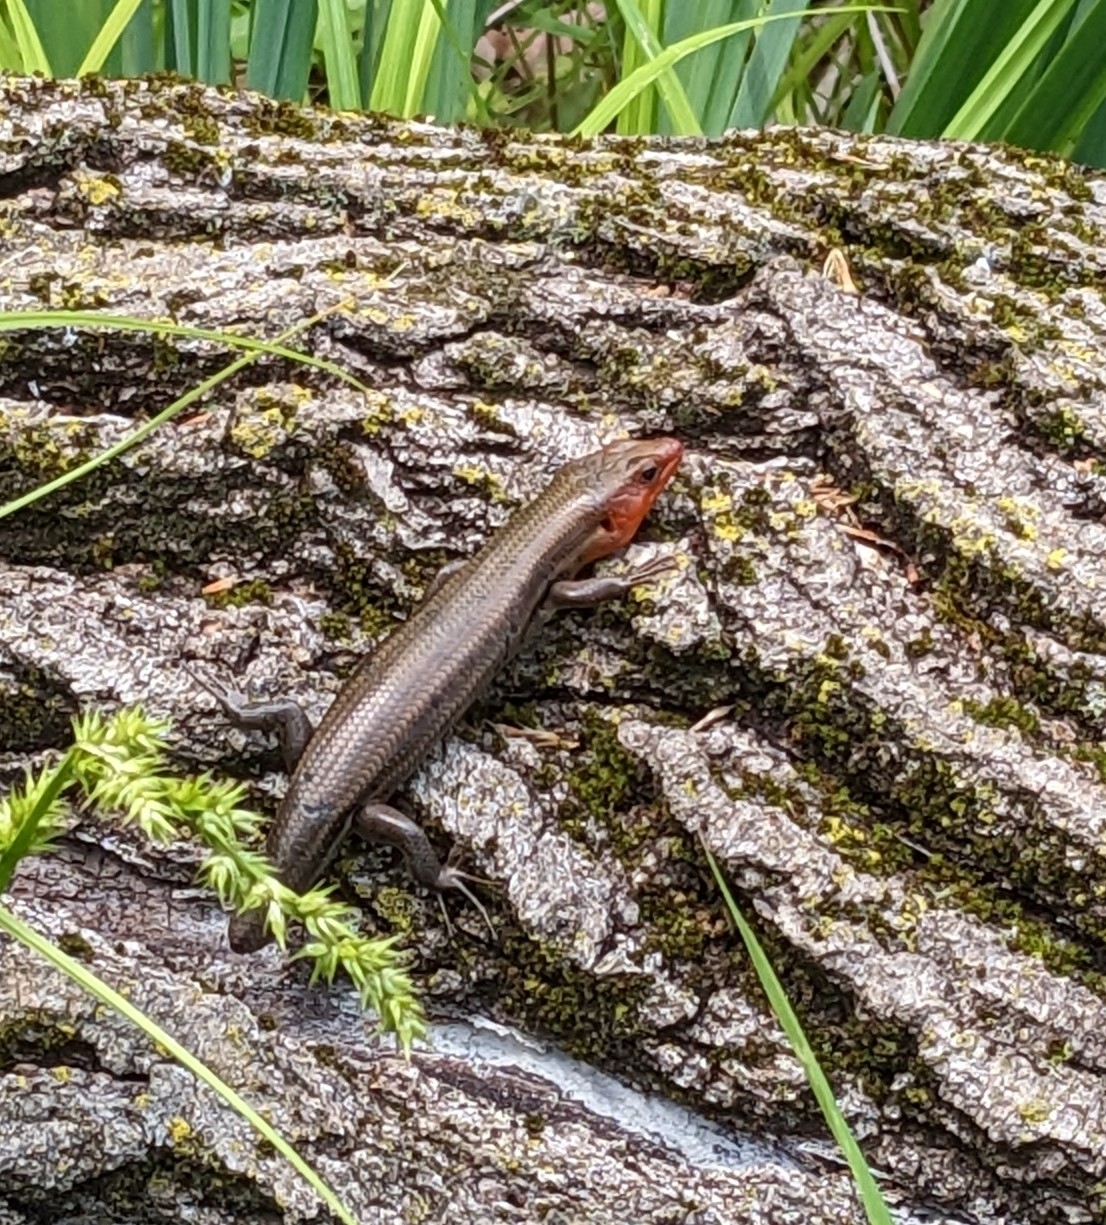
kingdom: Animalia
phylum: Chordata
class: Squamata
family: Scincidae
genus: Plestiodon
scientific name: Plestiodon fasciatus
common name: Five-lined skink
